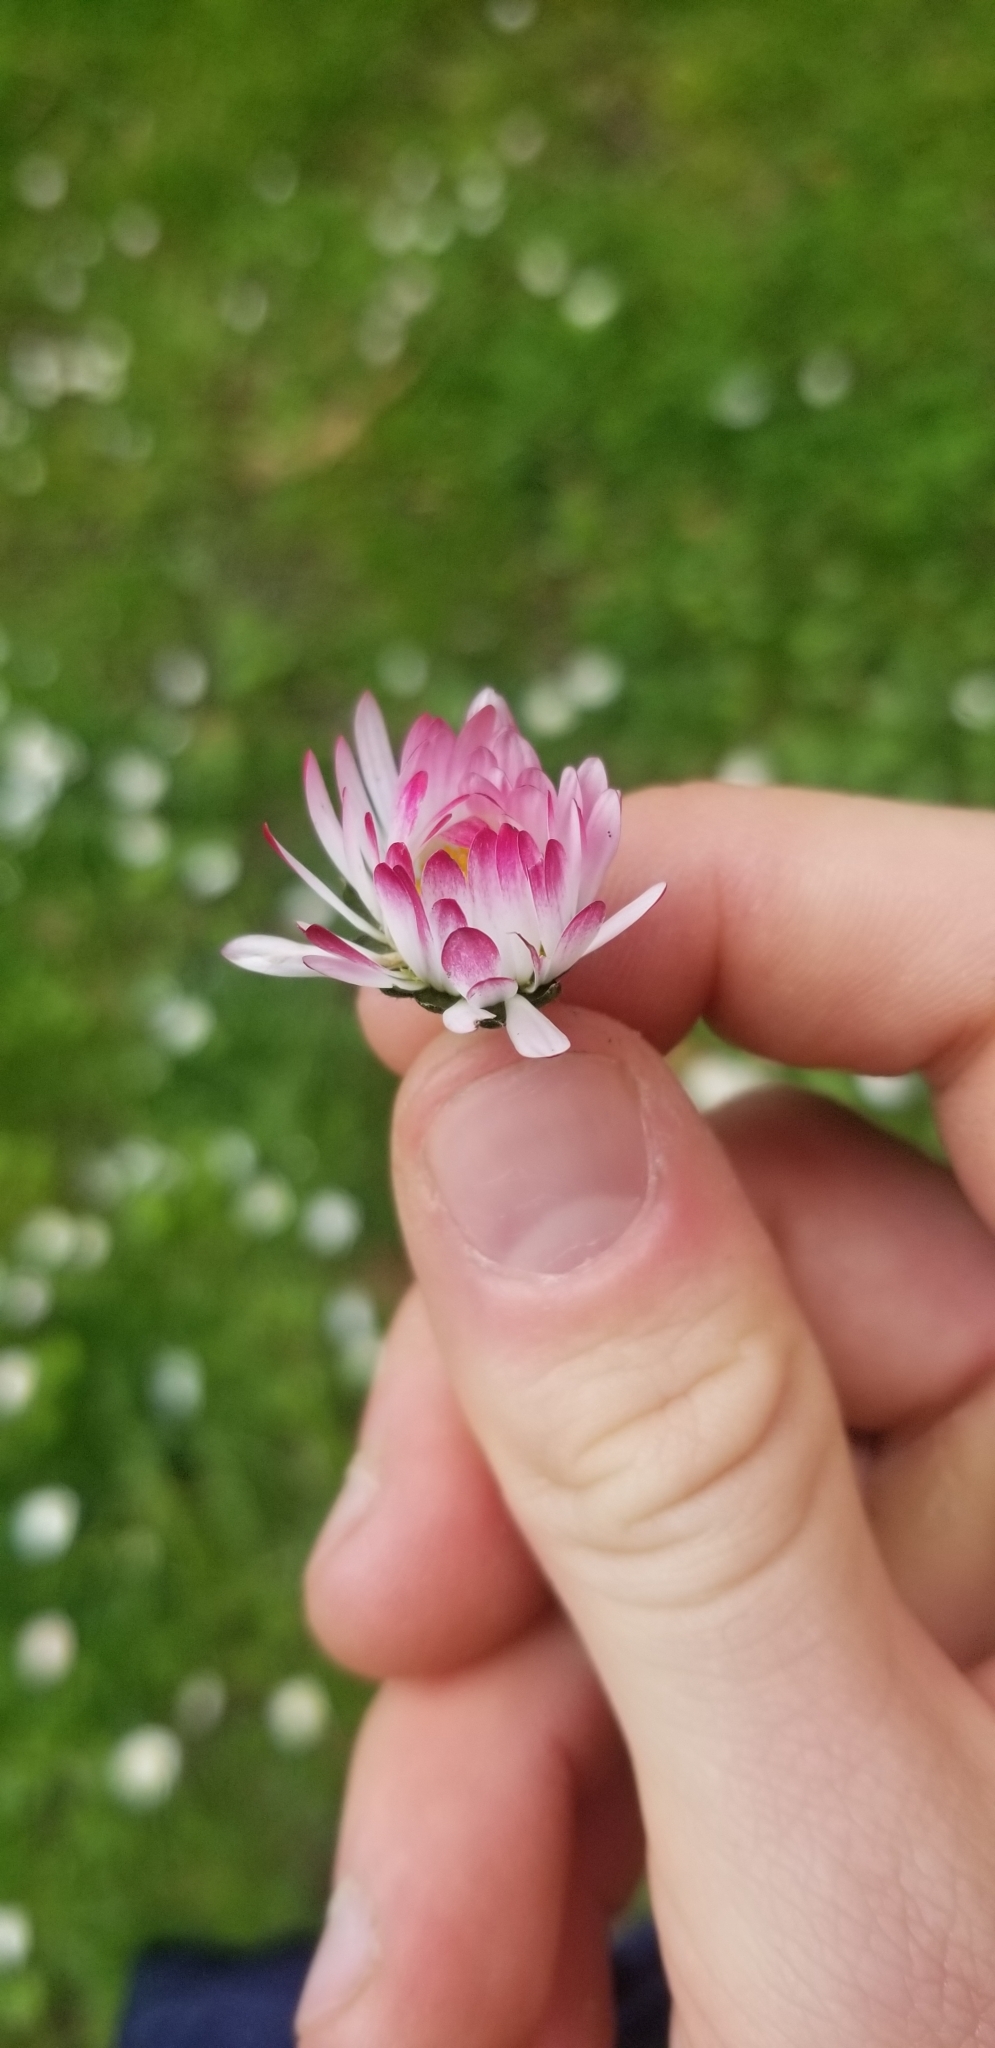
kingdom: Plantae
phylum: Tracheophyta
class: Magnoliopsida
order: Asterales
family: Asteraceae
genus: Bellis
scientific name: Bellis perennis
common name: Lawndaisy
